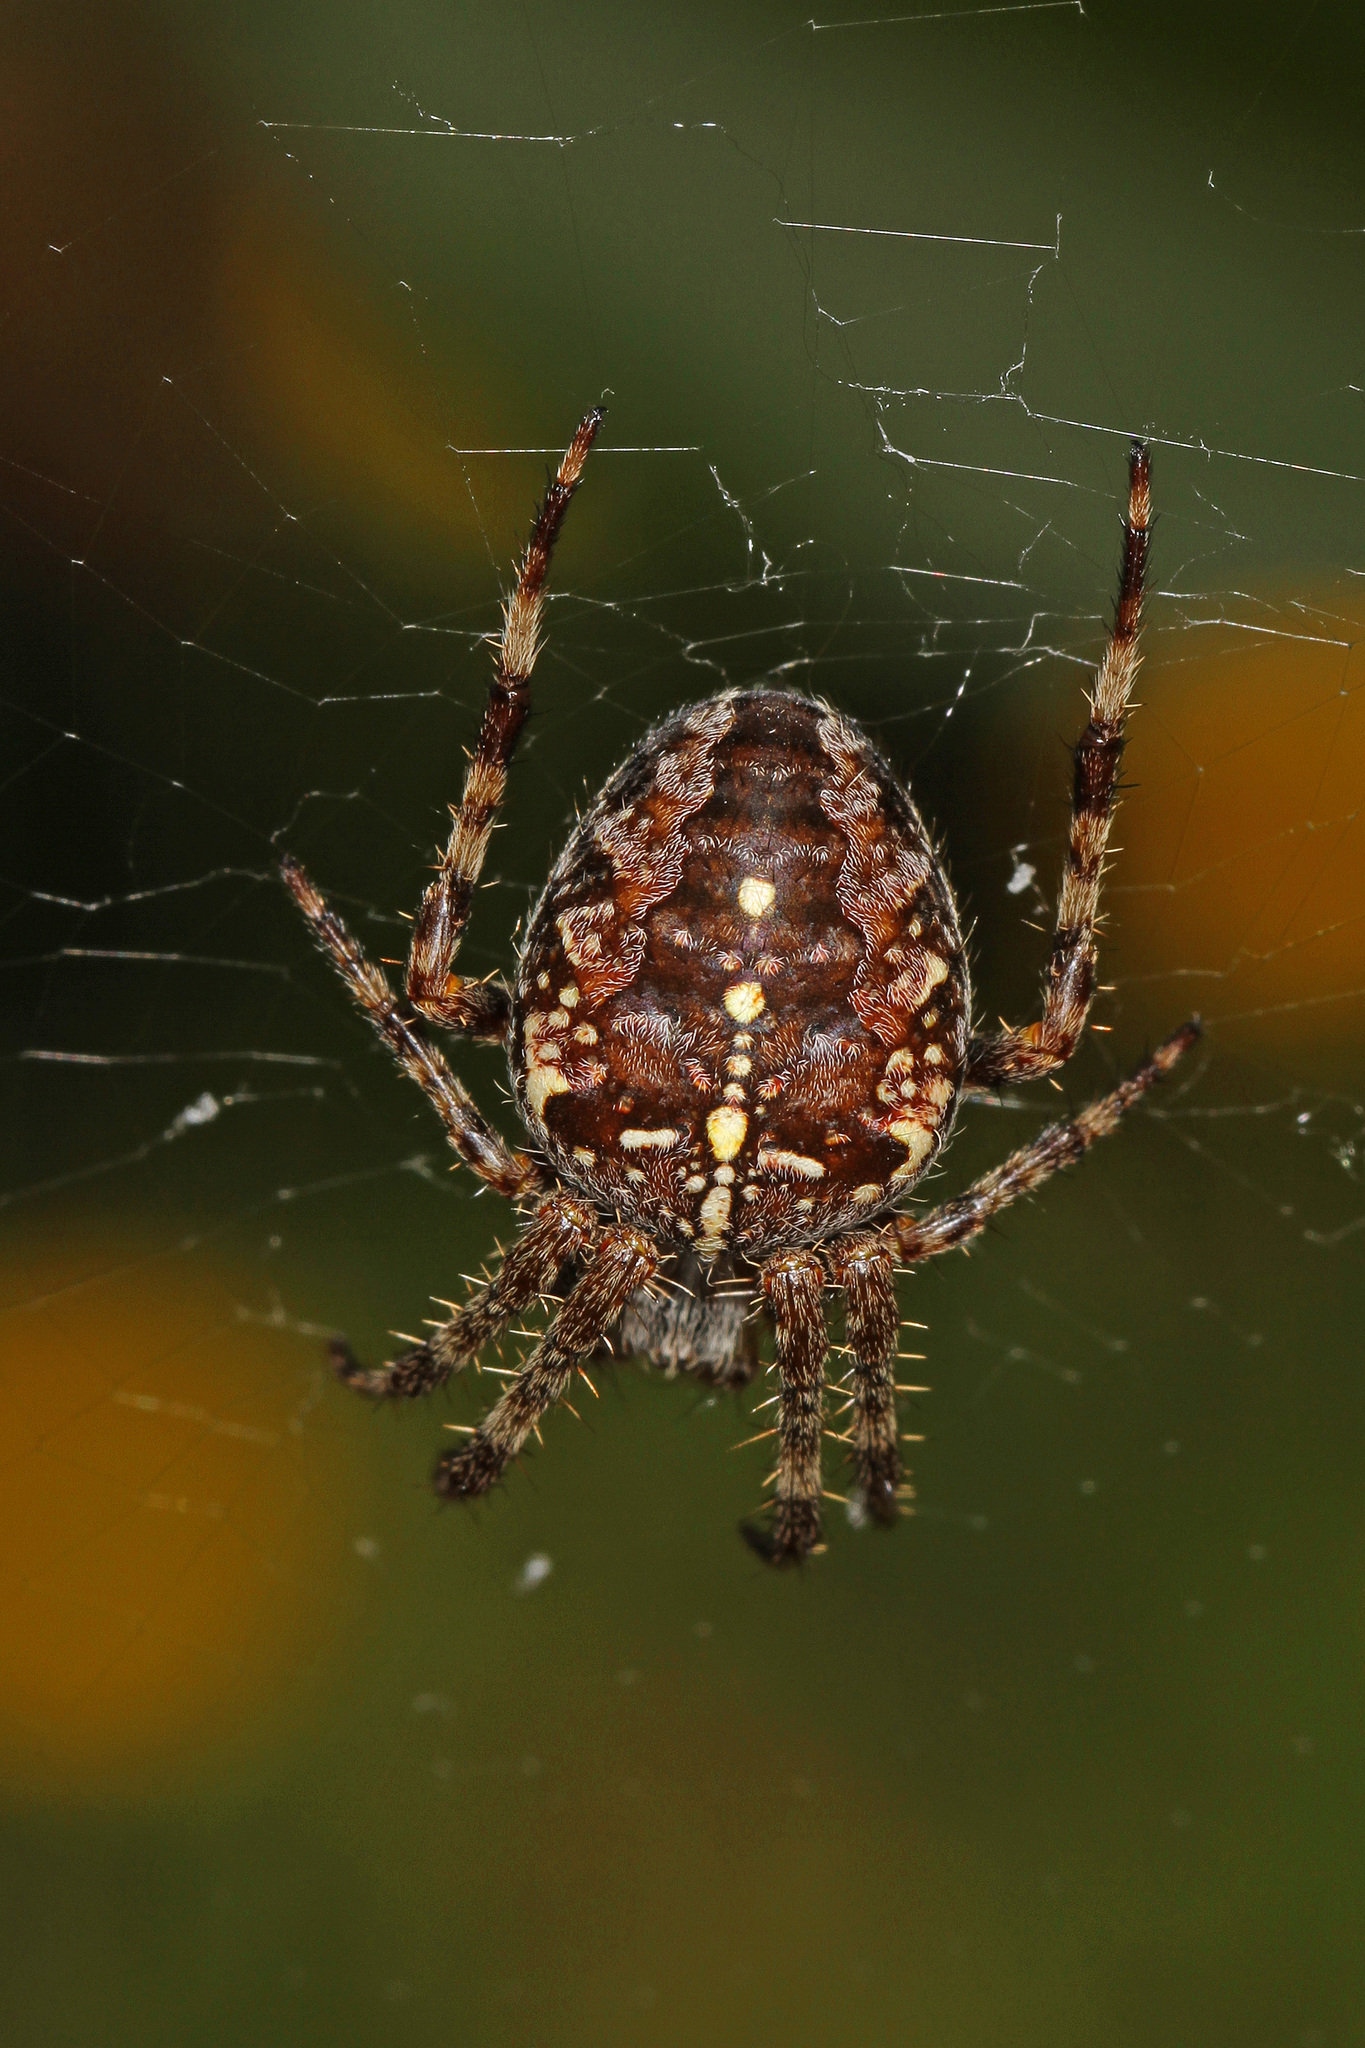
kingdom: Animalia
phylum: Arthropoda
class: Arachnida
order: Araneae
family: Araneidae
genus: Araneus
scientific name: Araneus diadematus
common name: Cross orbweaver
